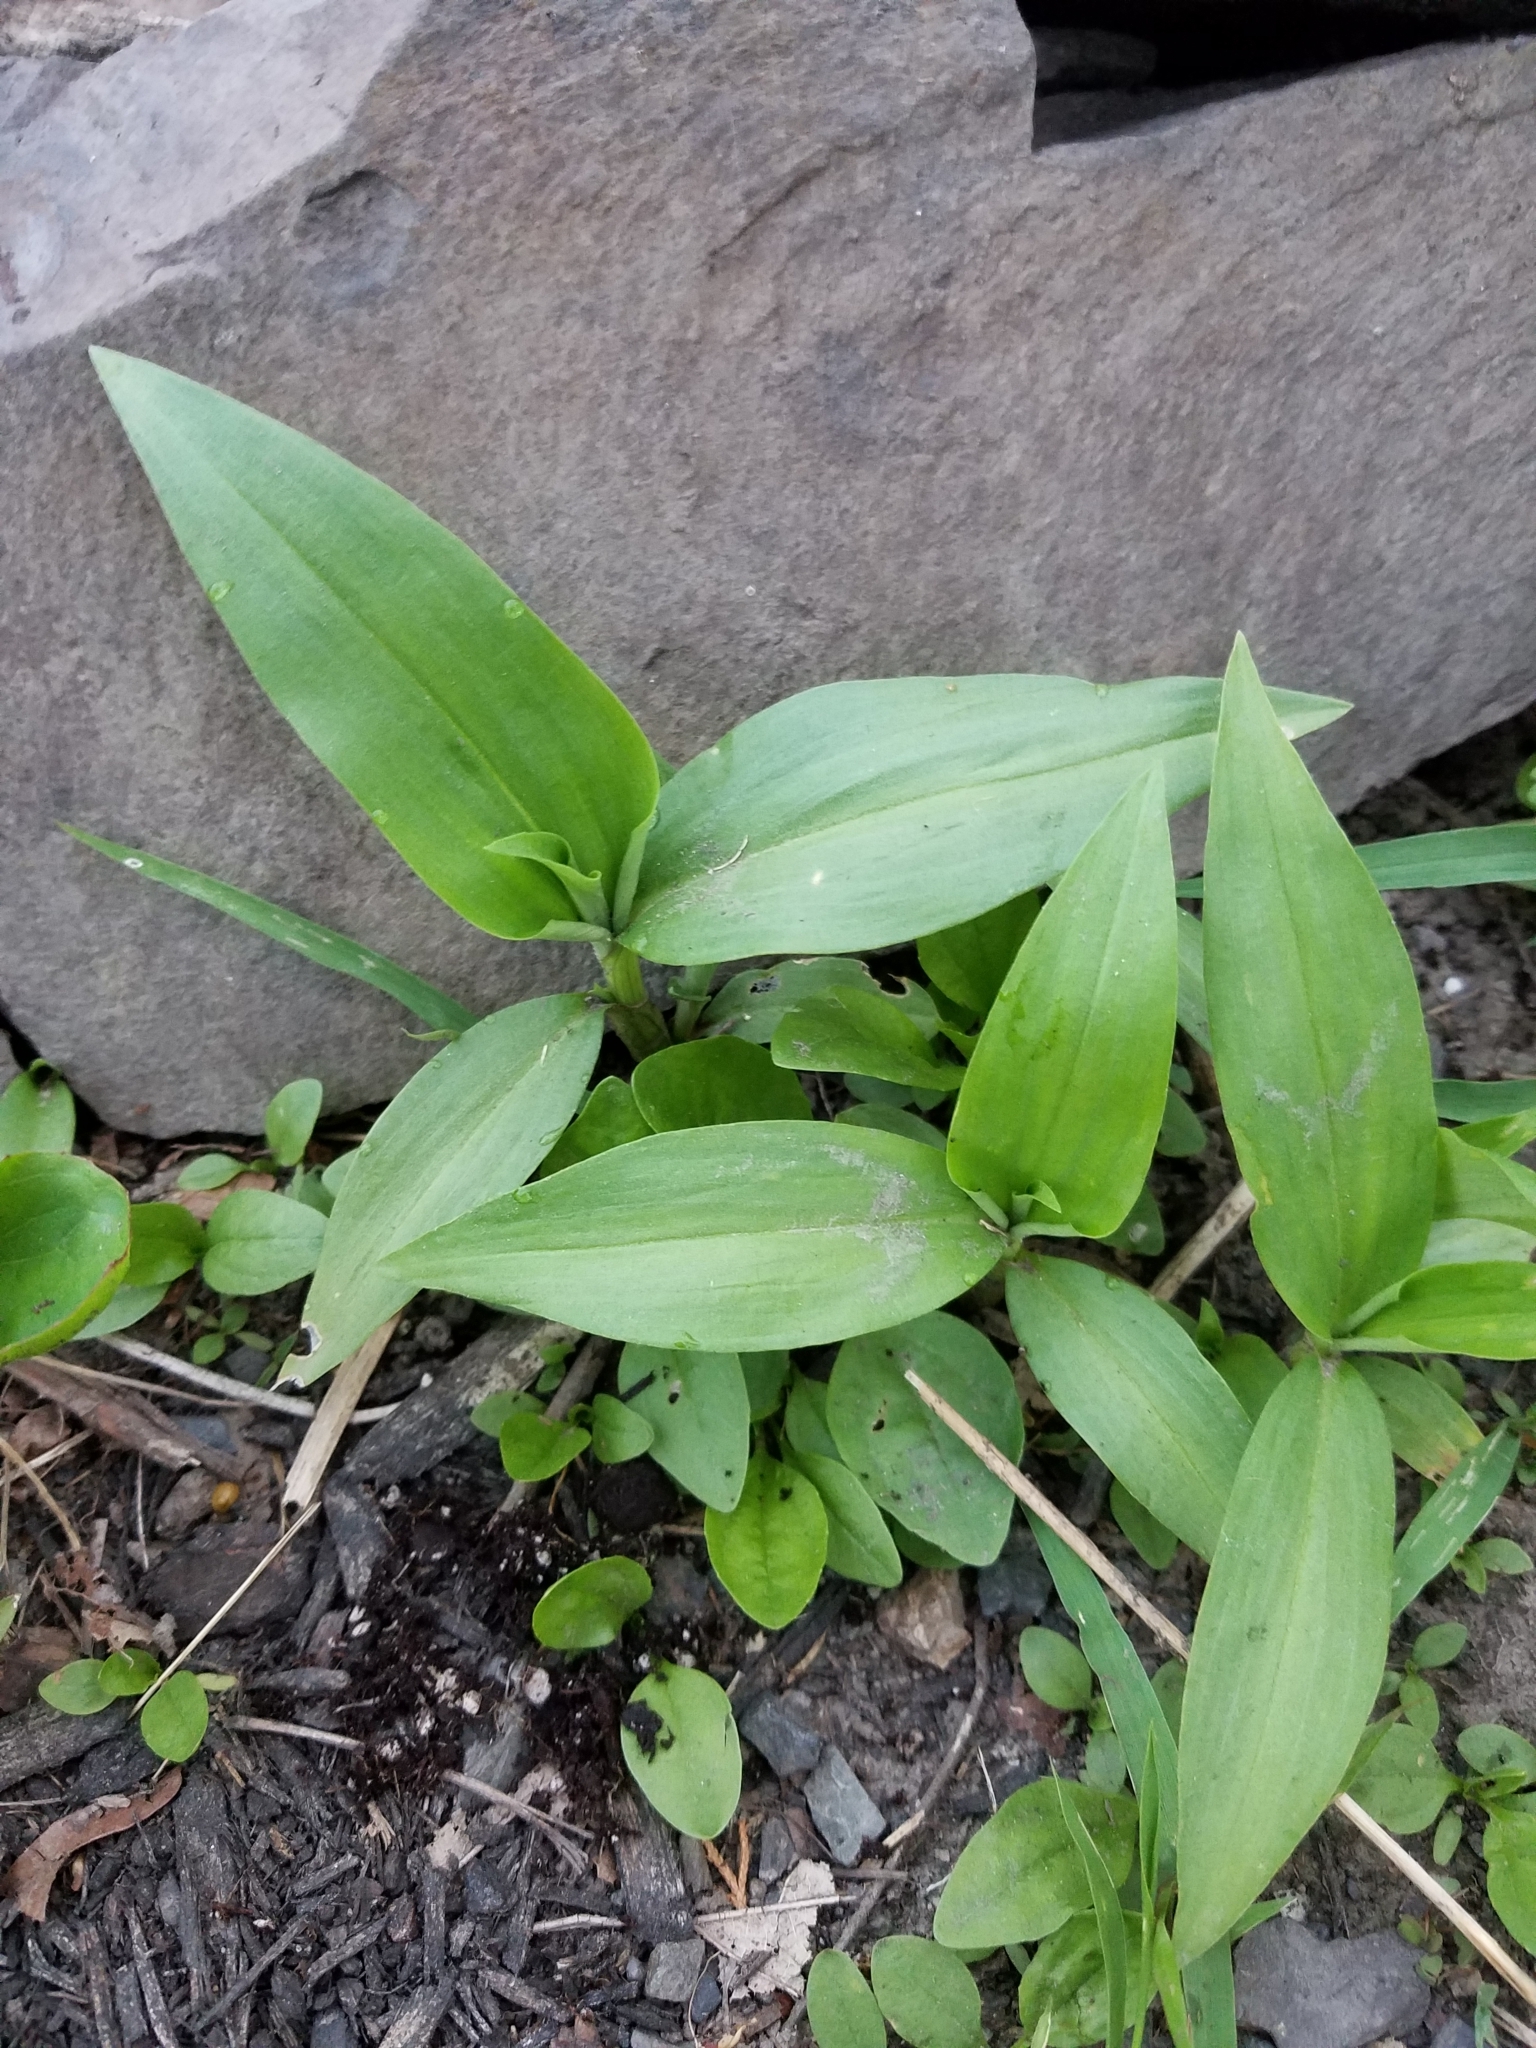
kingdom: Plantae
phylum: Tracheophyta
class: Liliopsida
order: Commelinales
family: Commelinaceae
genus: Commelina
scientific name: Commelina communis
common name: Asiatic dayflower
